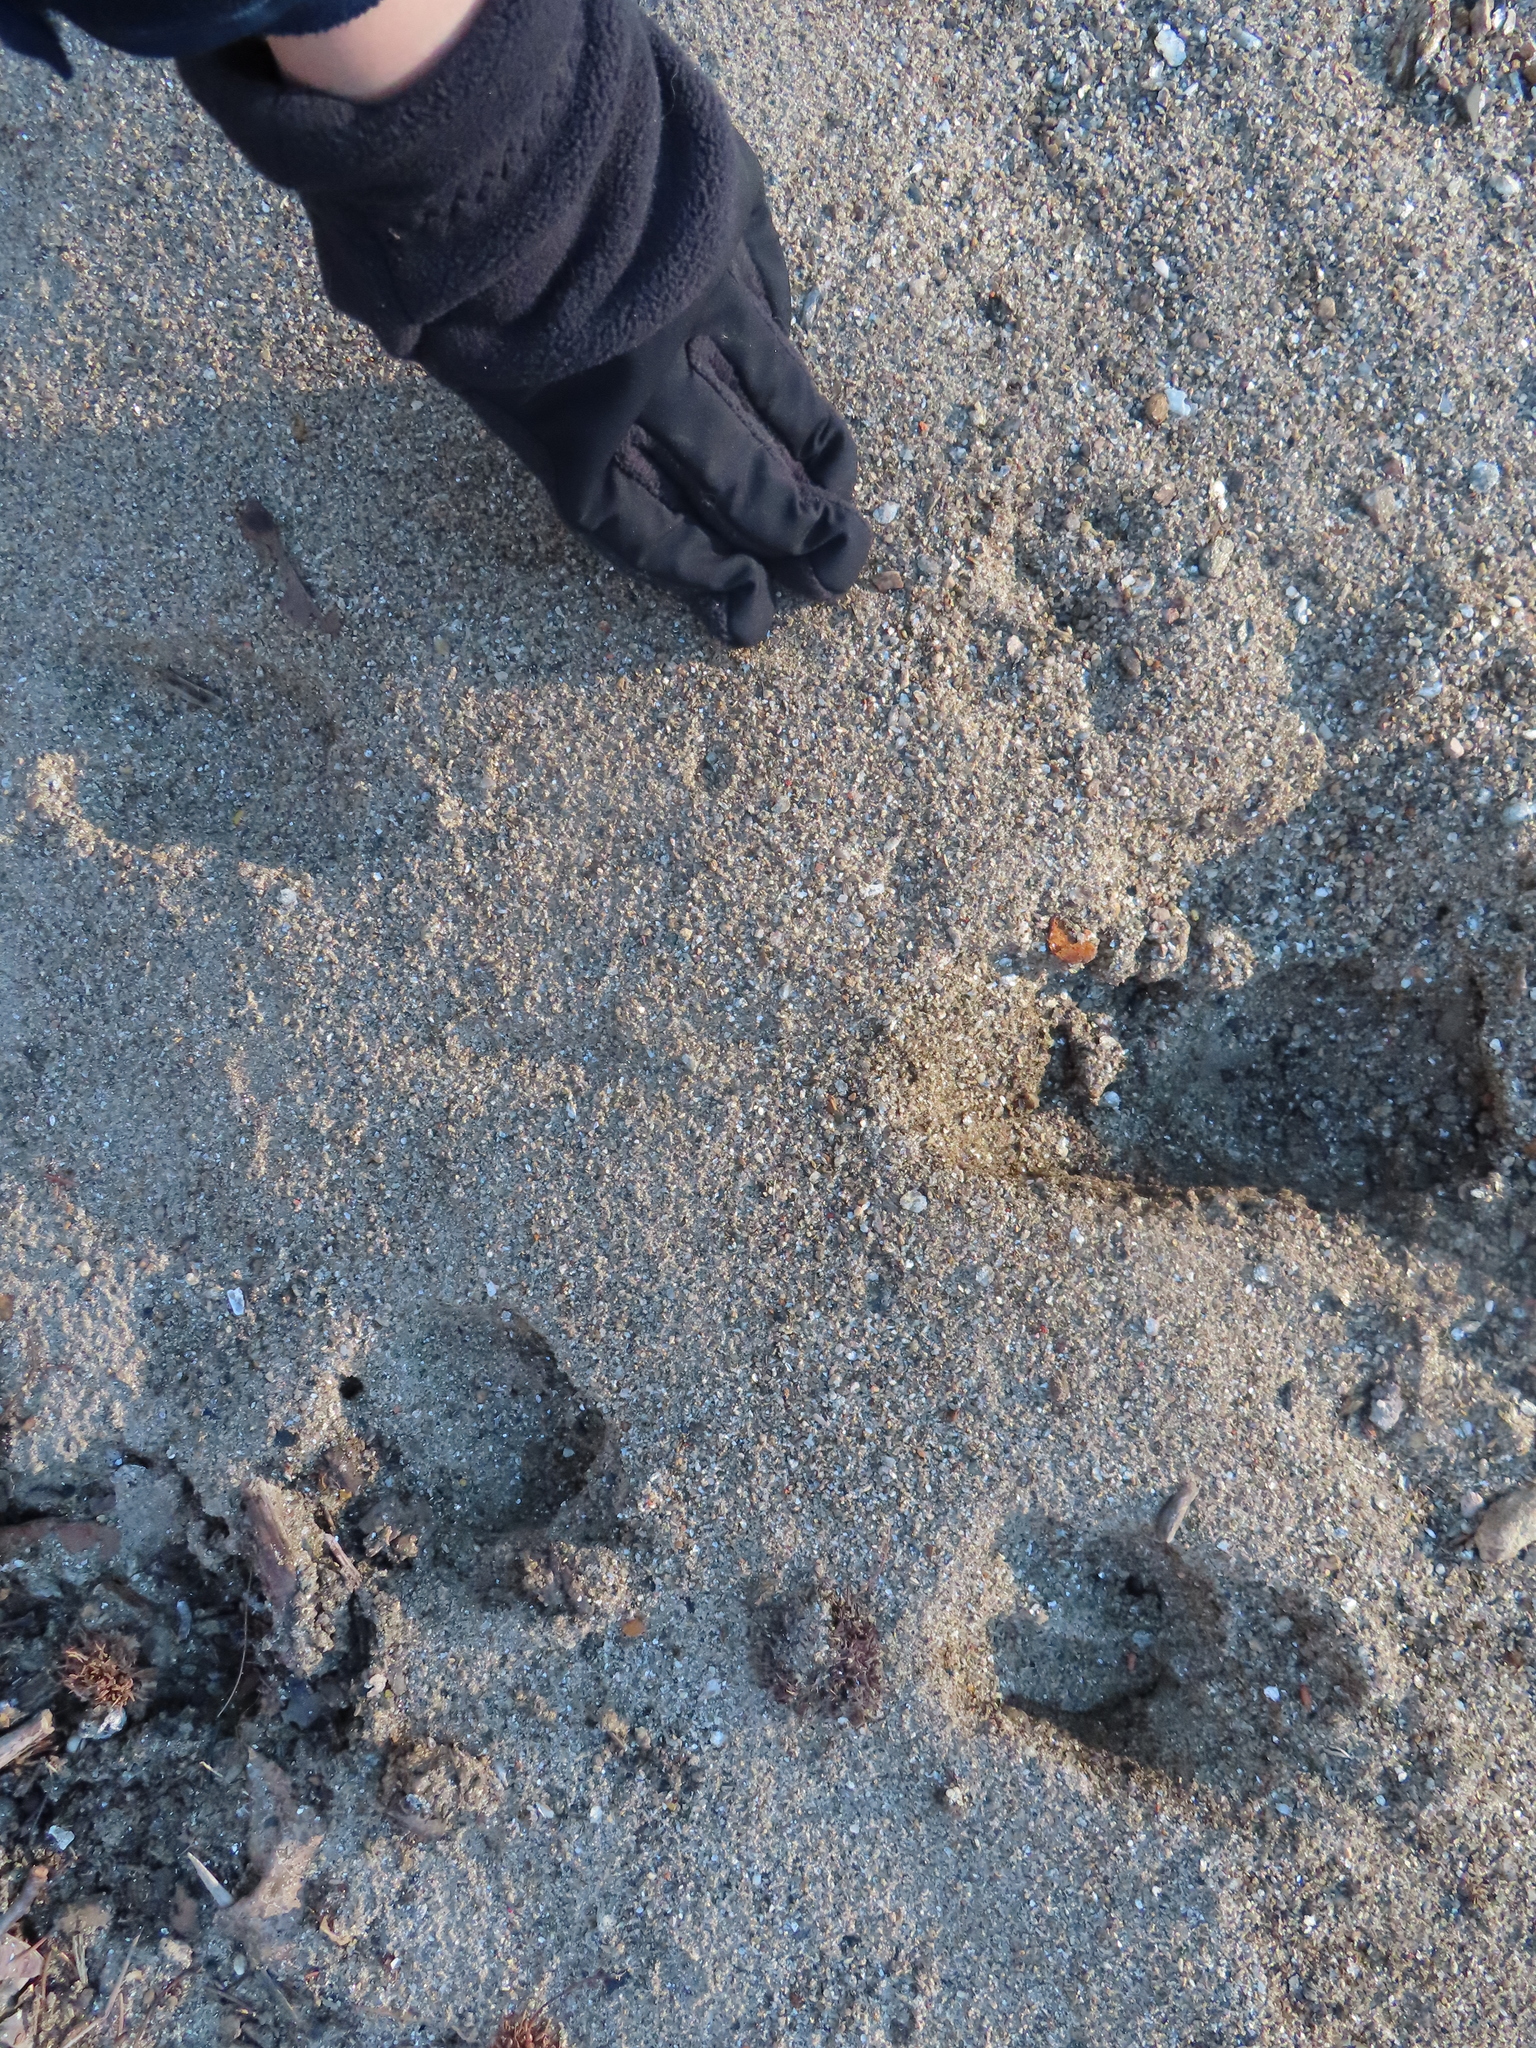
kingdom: Animalia
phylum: Chordata
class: Mammalia
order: Artiodactyla
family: Cervidae
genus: Odocoileus
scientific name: Odocoileus virginianus
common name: White-tailed deer
